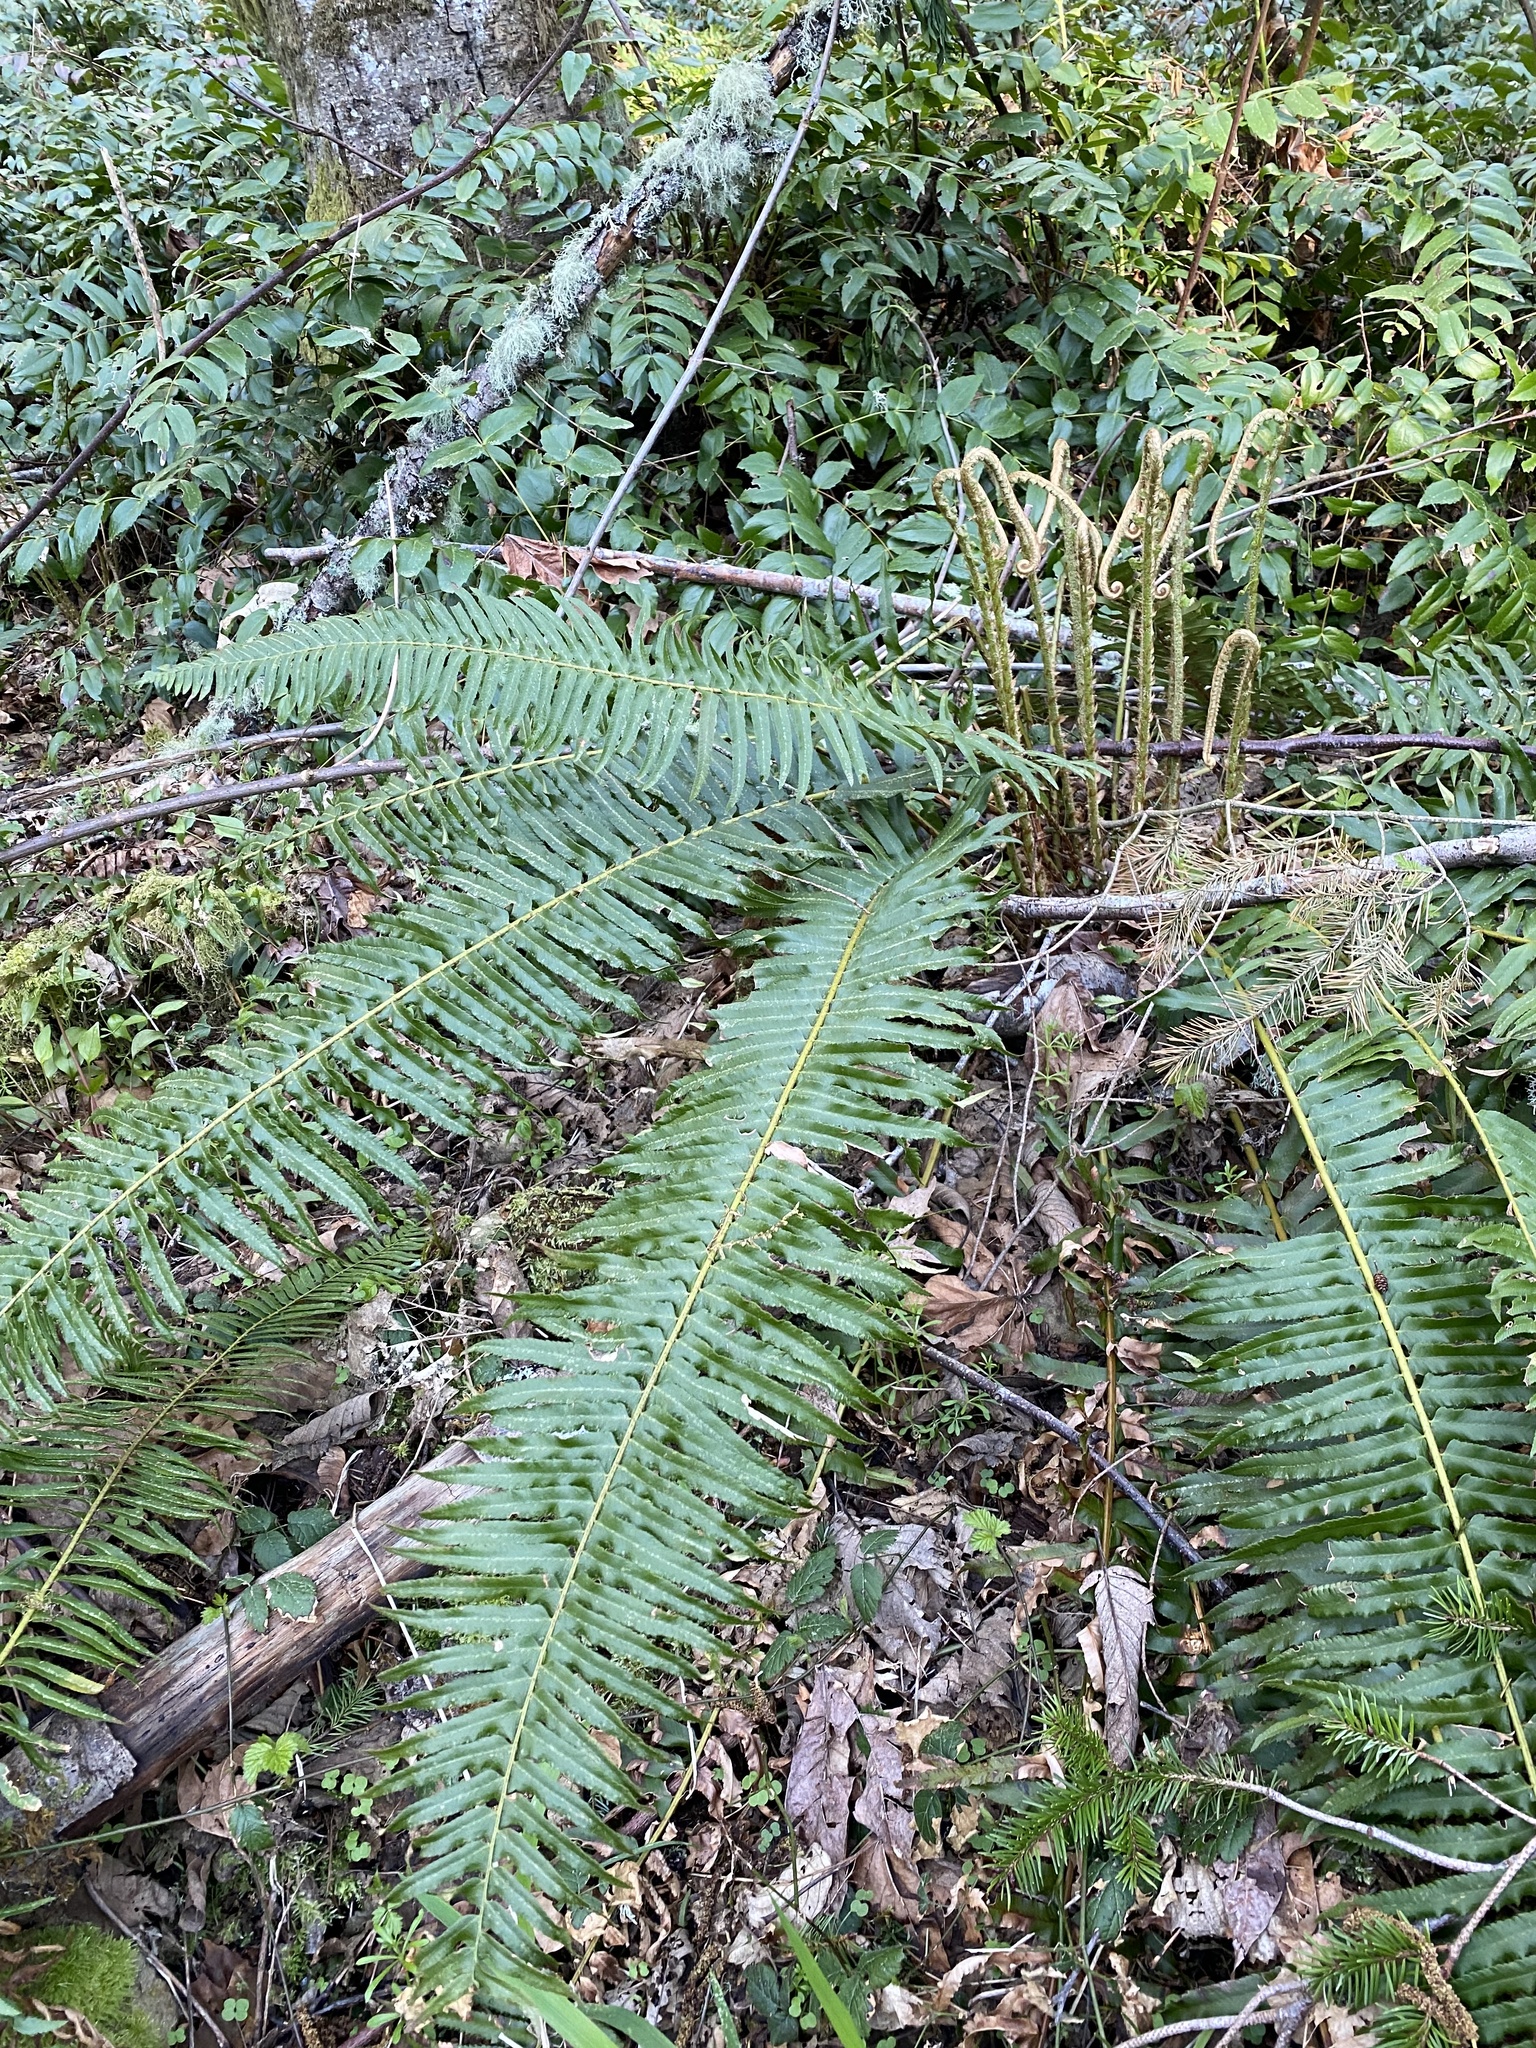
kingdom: Plantae
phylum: Tracheophyta
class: Polypodiopsida
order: Polypodiales
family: Dryopteridaceae
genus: Polystichum
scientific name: Polystichum munitum
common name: Western sword-fern
